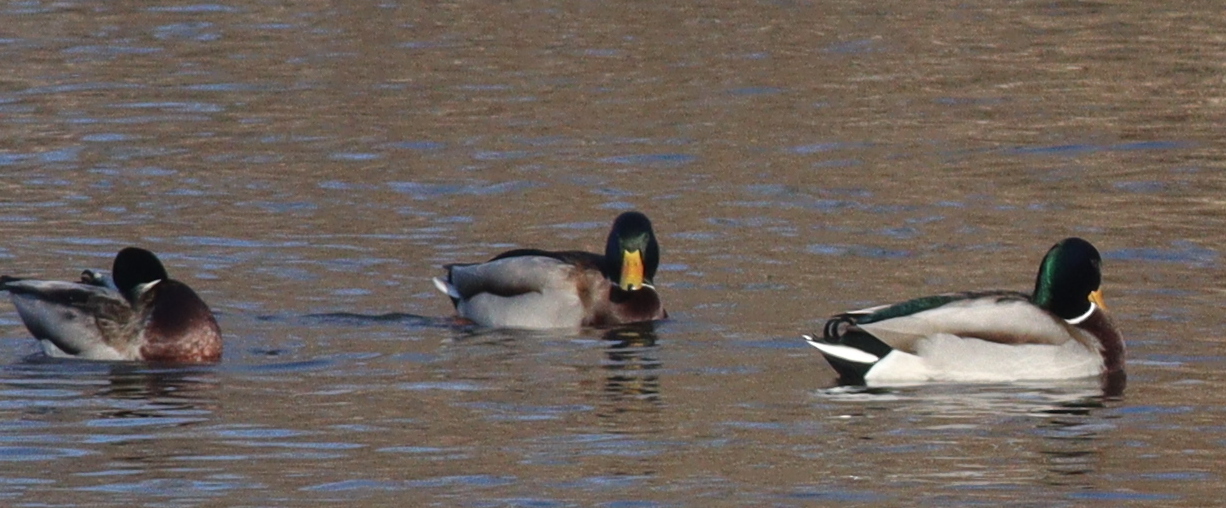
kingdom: Animalia
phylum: Chordata
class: Aves
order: Anseriformes
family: Anatidae
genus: Anas
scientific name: Anas platyrhynchos
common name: Mallard
